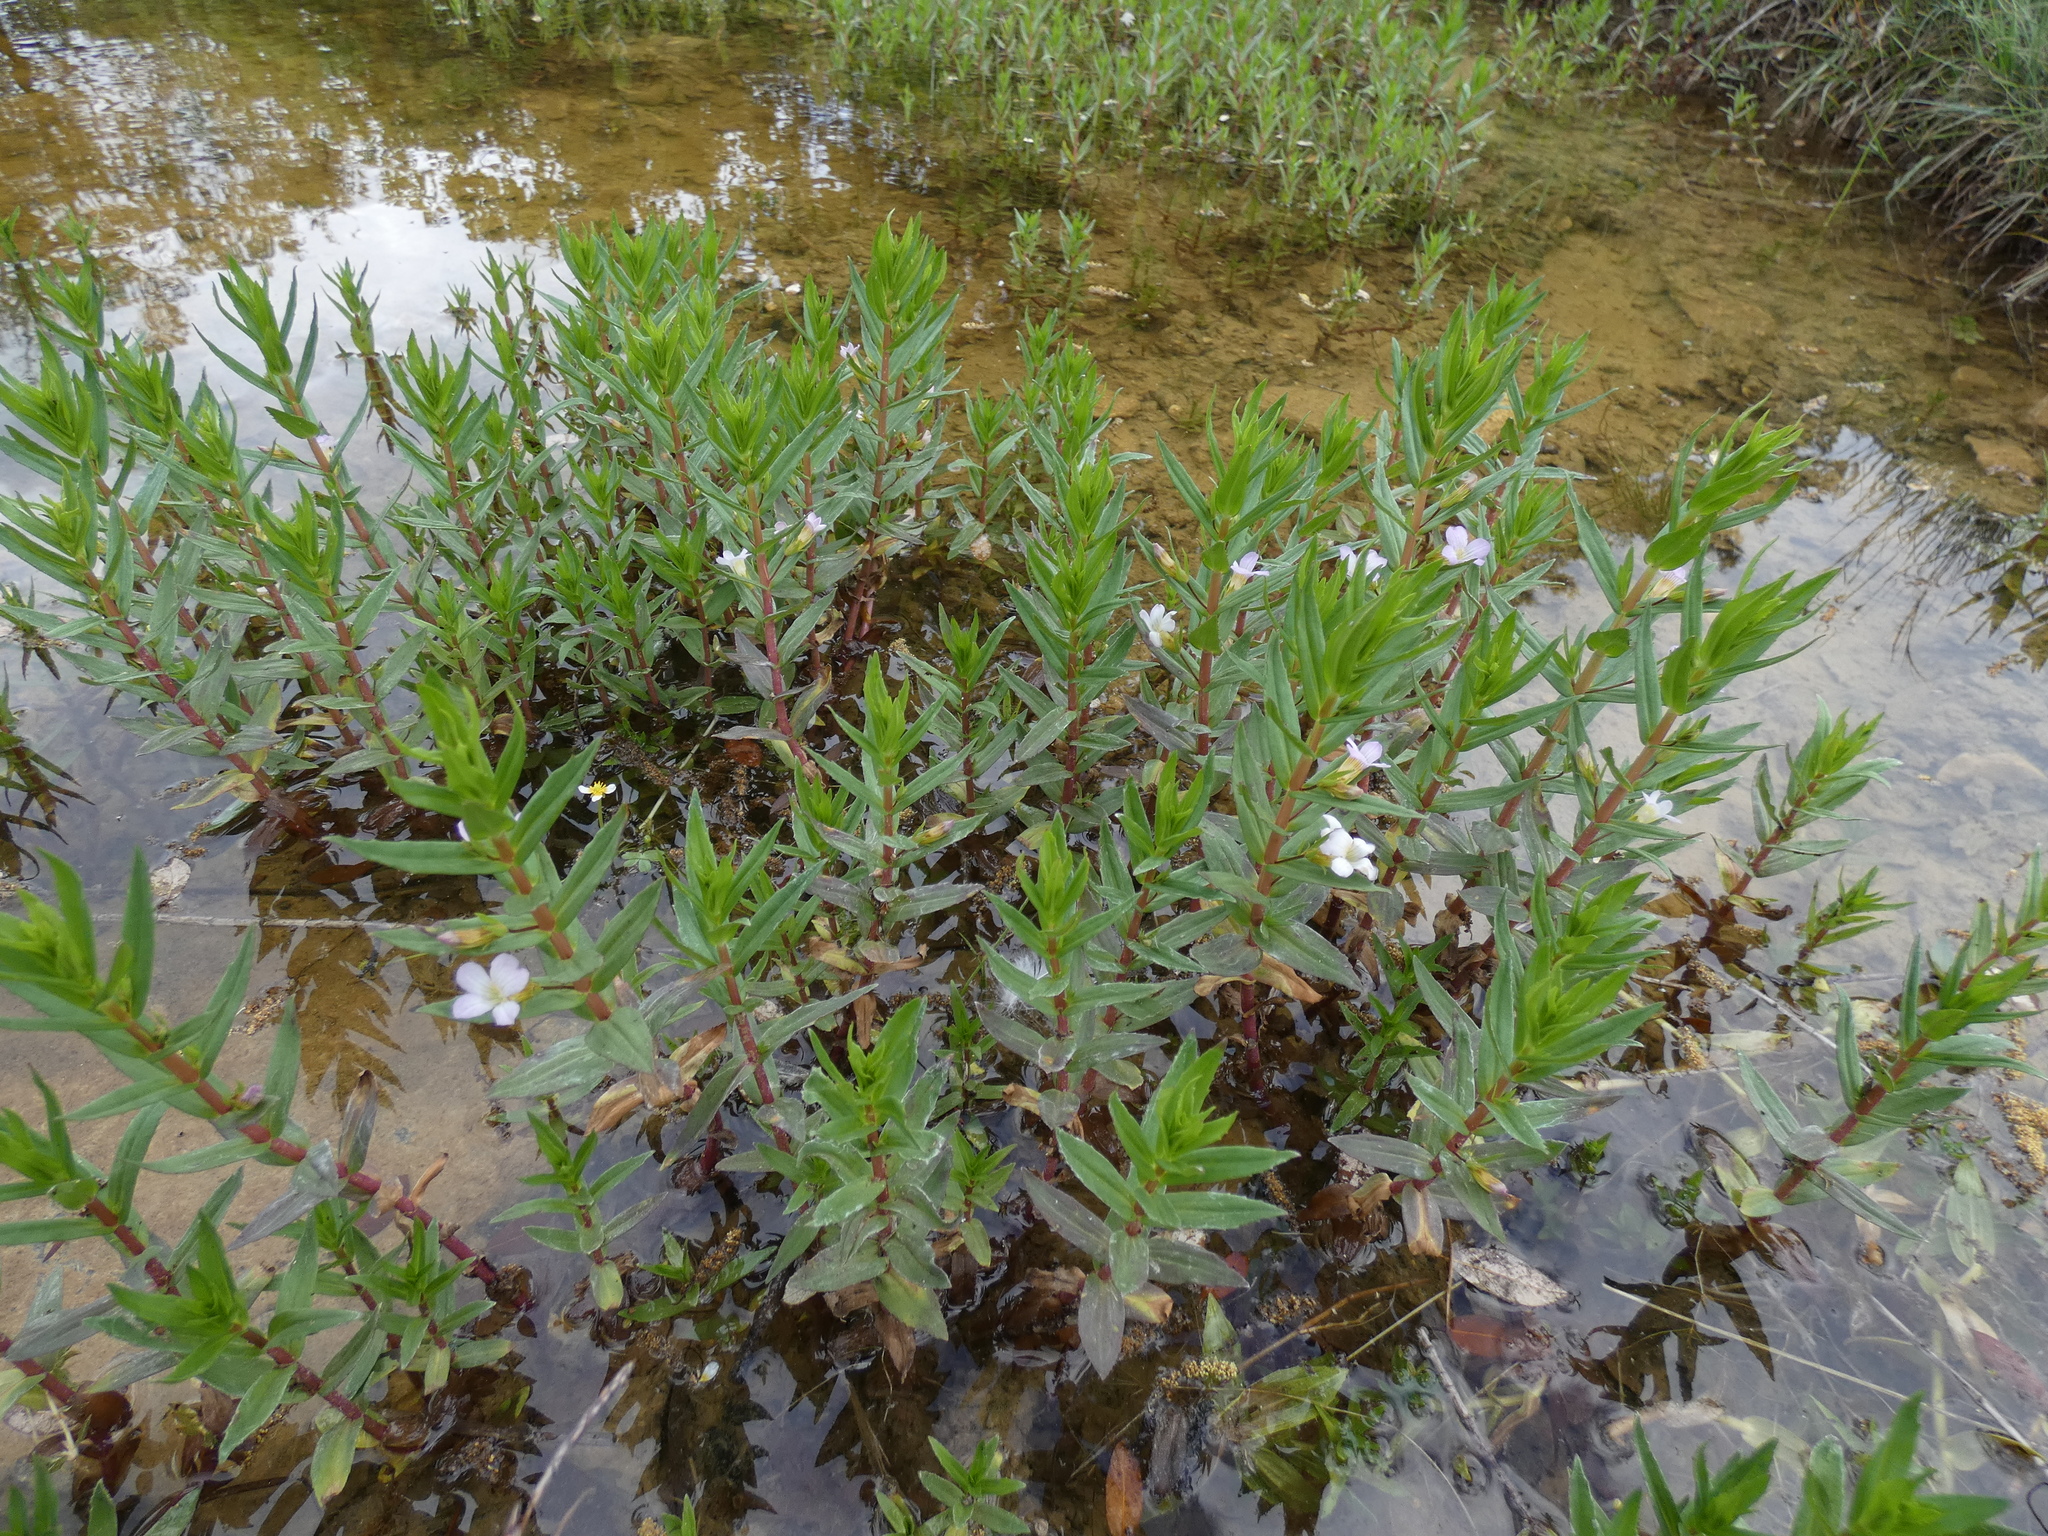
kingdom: Plantae
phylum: Tracheophyta
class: Magnoliopsida
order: Lamiales
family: Plantaginaceae
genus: Gratiola
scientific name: Gratiola officinalis
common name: Gratiola
